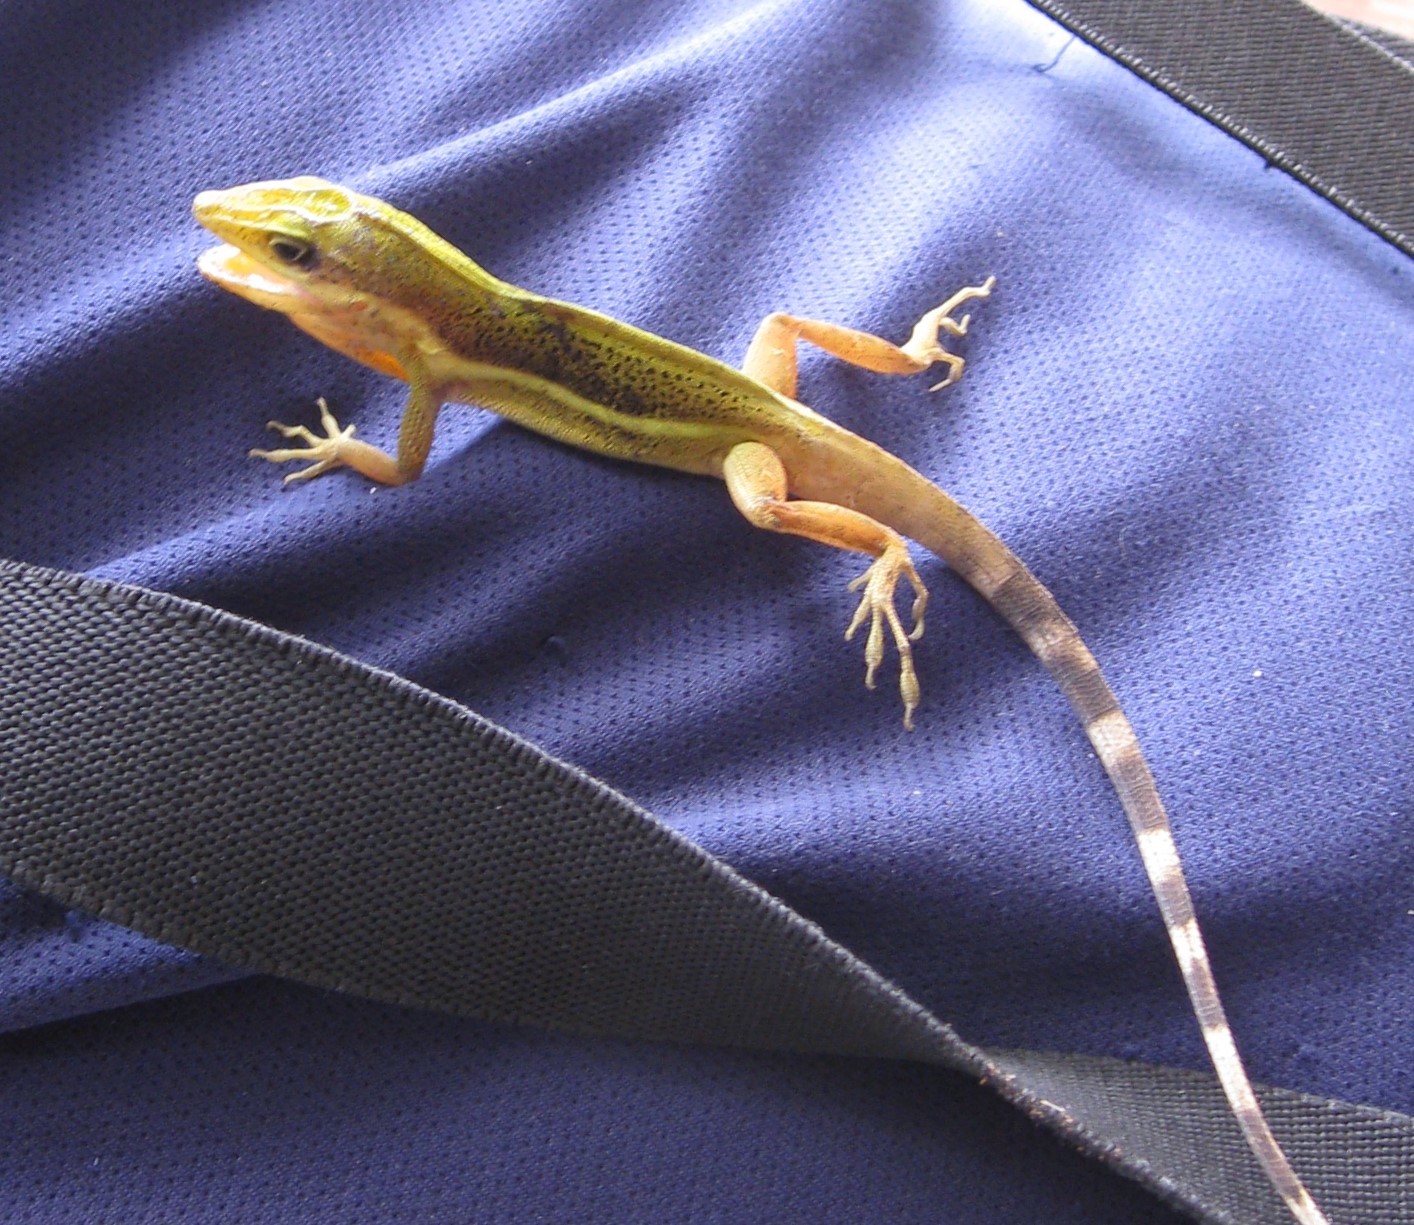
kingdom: Animalia
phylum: Chordata
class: Squamata
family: Dactyloidae
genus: Anolis
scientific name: Anolis krugi
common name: Krug's anole
